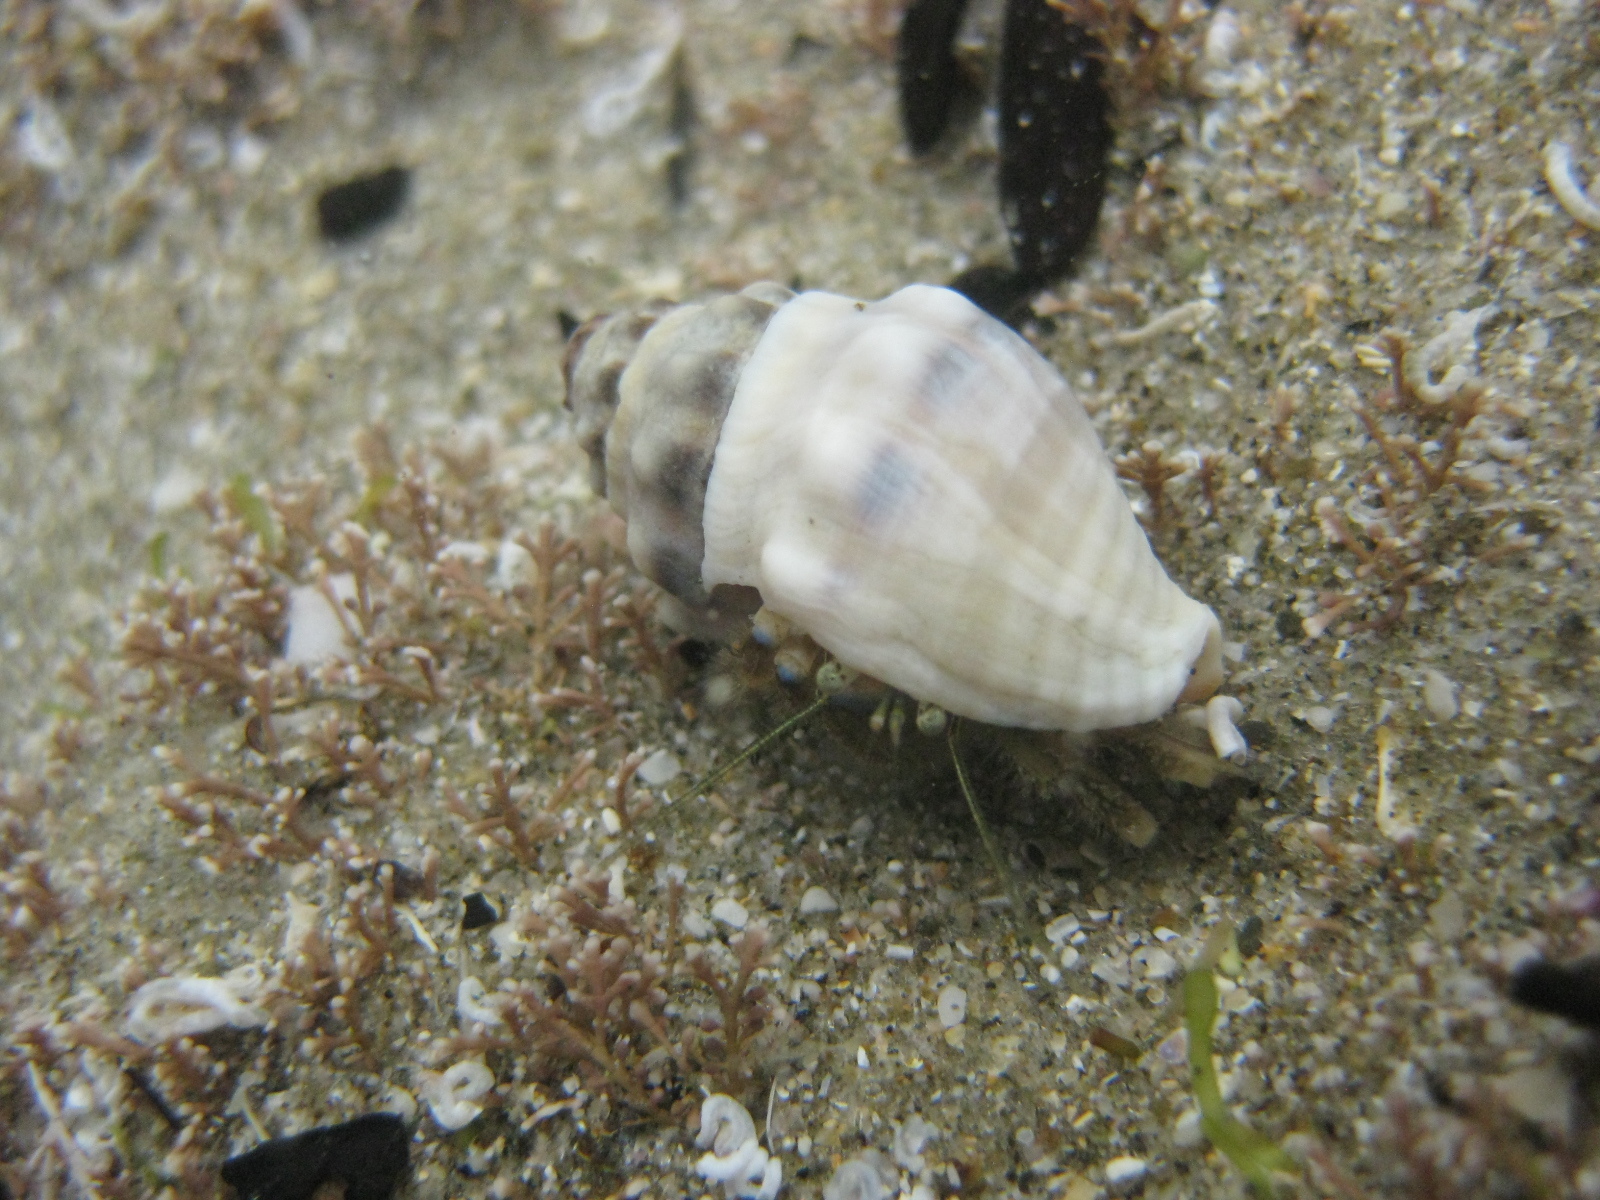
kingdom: Animalia
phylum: Mollusca
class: Gastropoda
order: Neogastropoda
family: Cominellidae
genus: Cominella
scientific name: Cominella glandiformis
